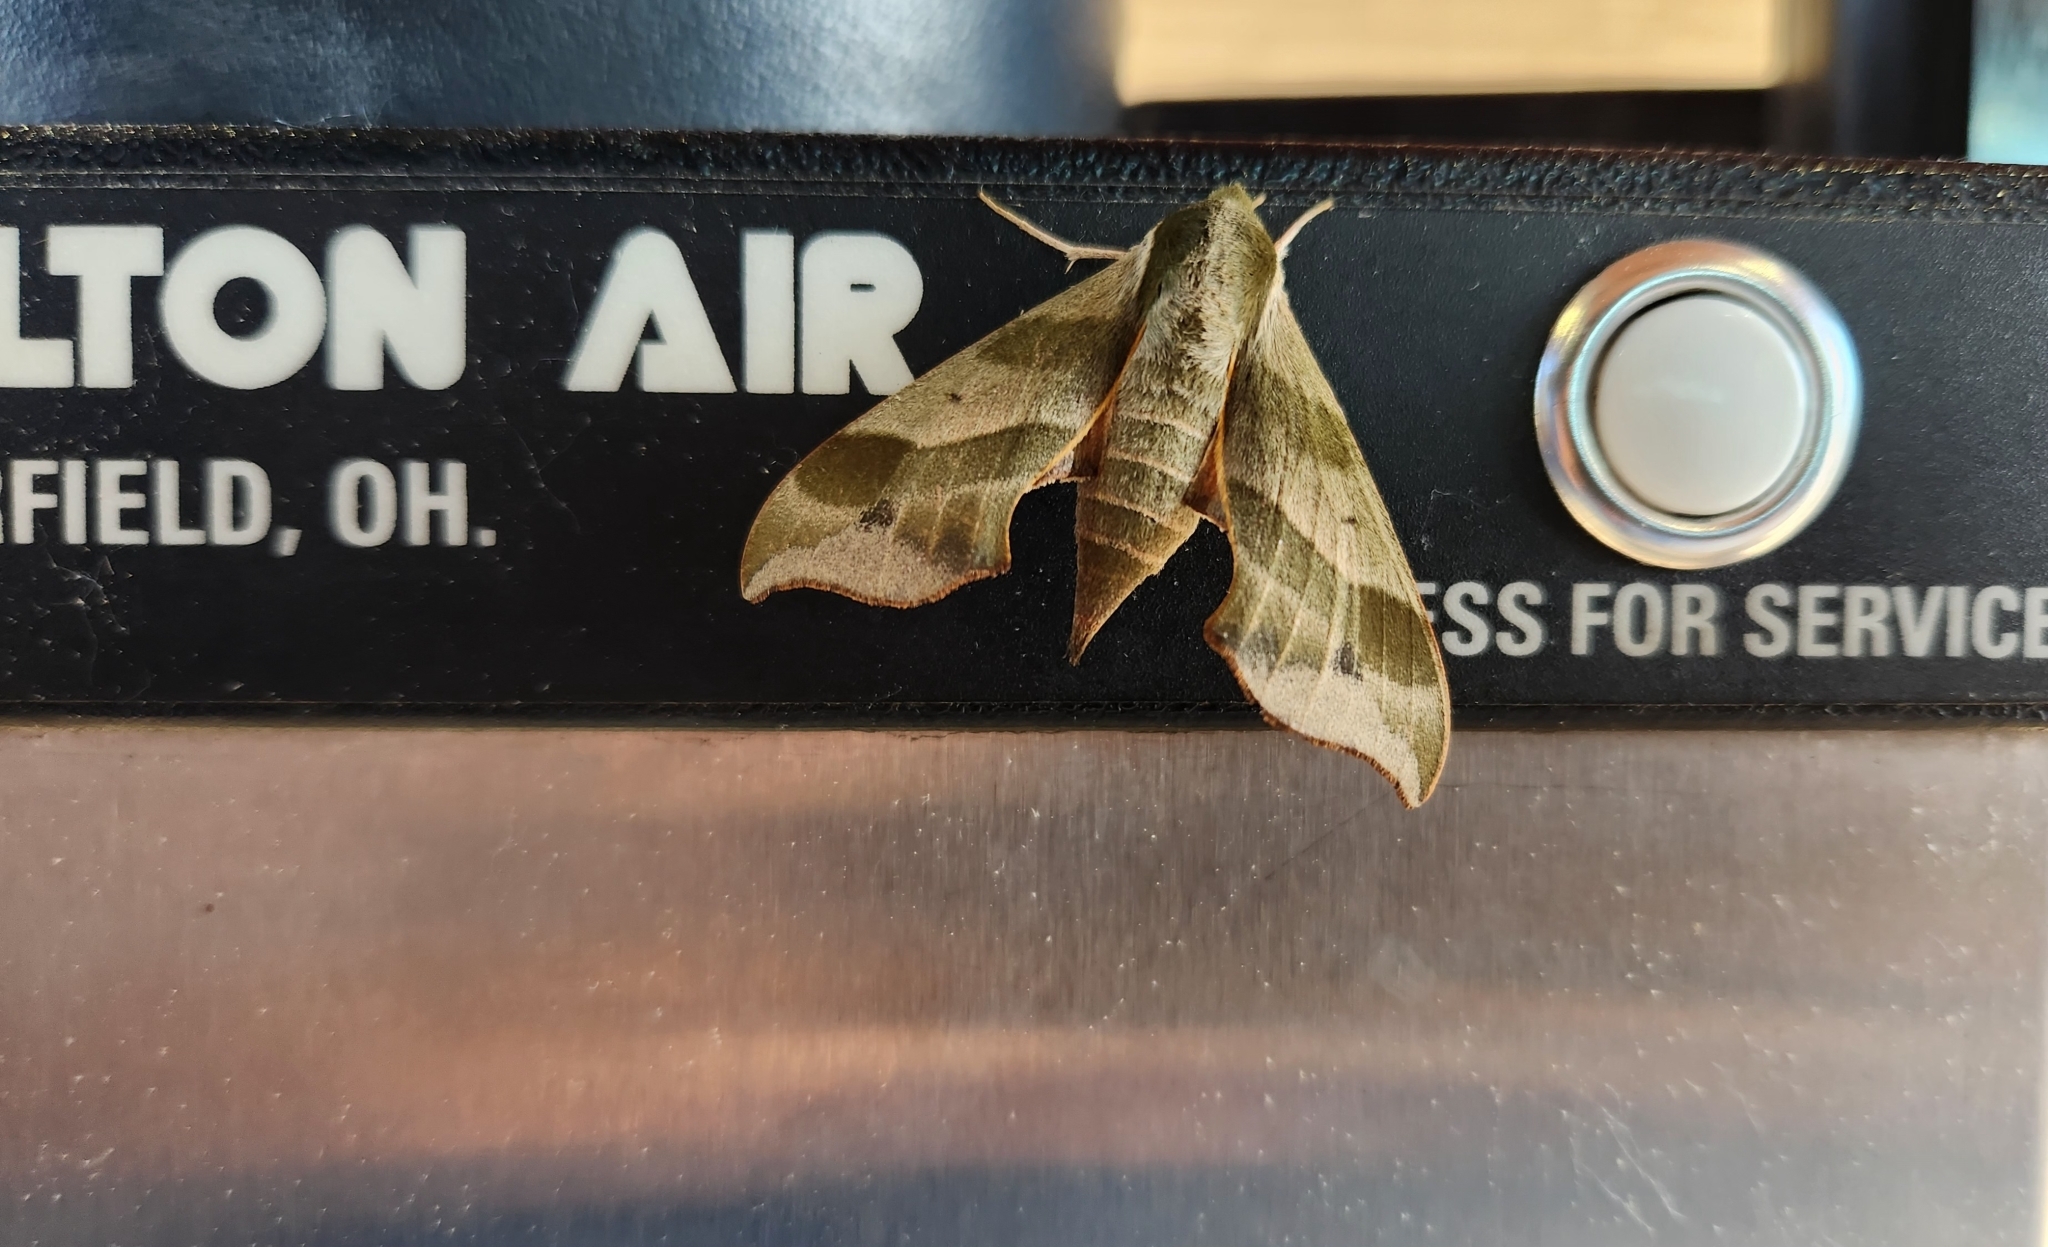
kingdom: Animalia
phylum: Arthropoda
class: Insecta
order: Lepidoptera
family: Sphingidae
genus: Darapsa
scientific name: Darapsa myron
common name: Hog sphinx
